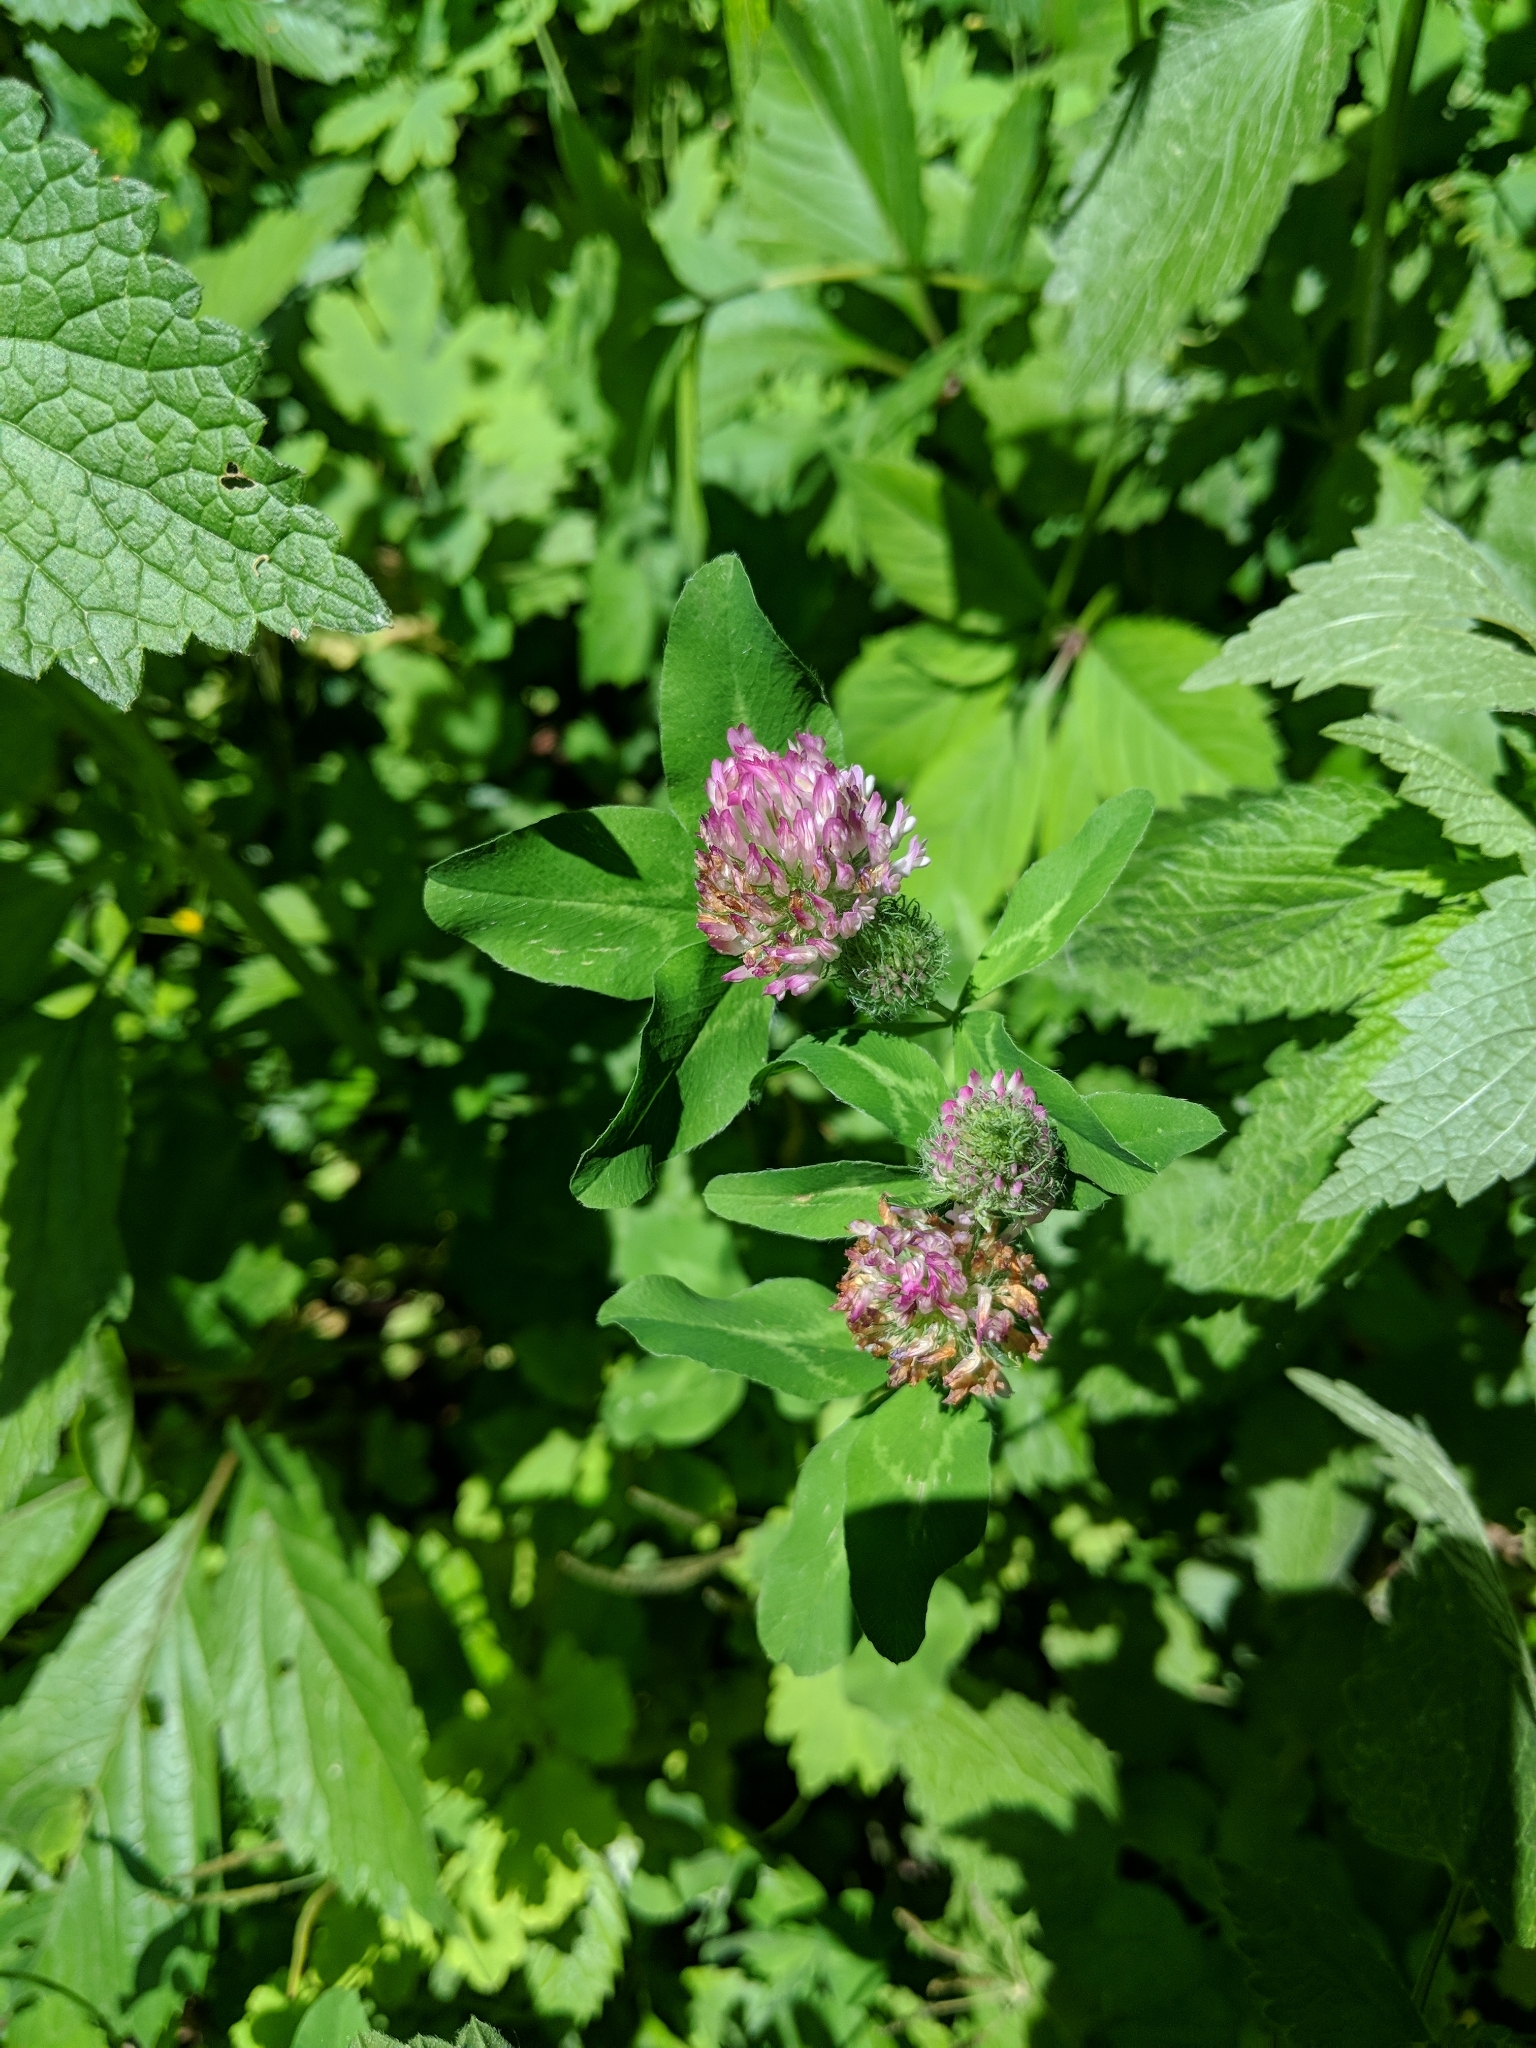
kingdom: Plantae
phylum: Tracheophyta
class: Magnoliopsida
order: Fabales
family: Fabaceae
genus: Trifolium
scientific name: Trifolium pratense
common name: Red clover
